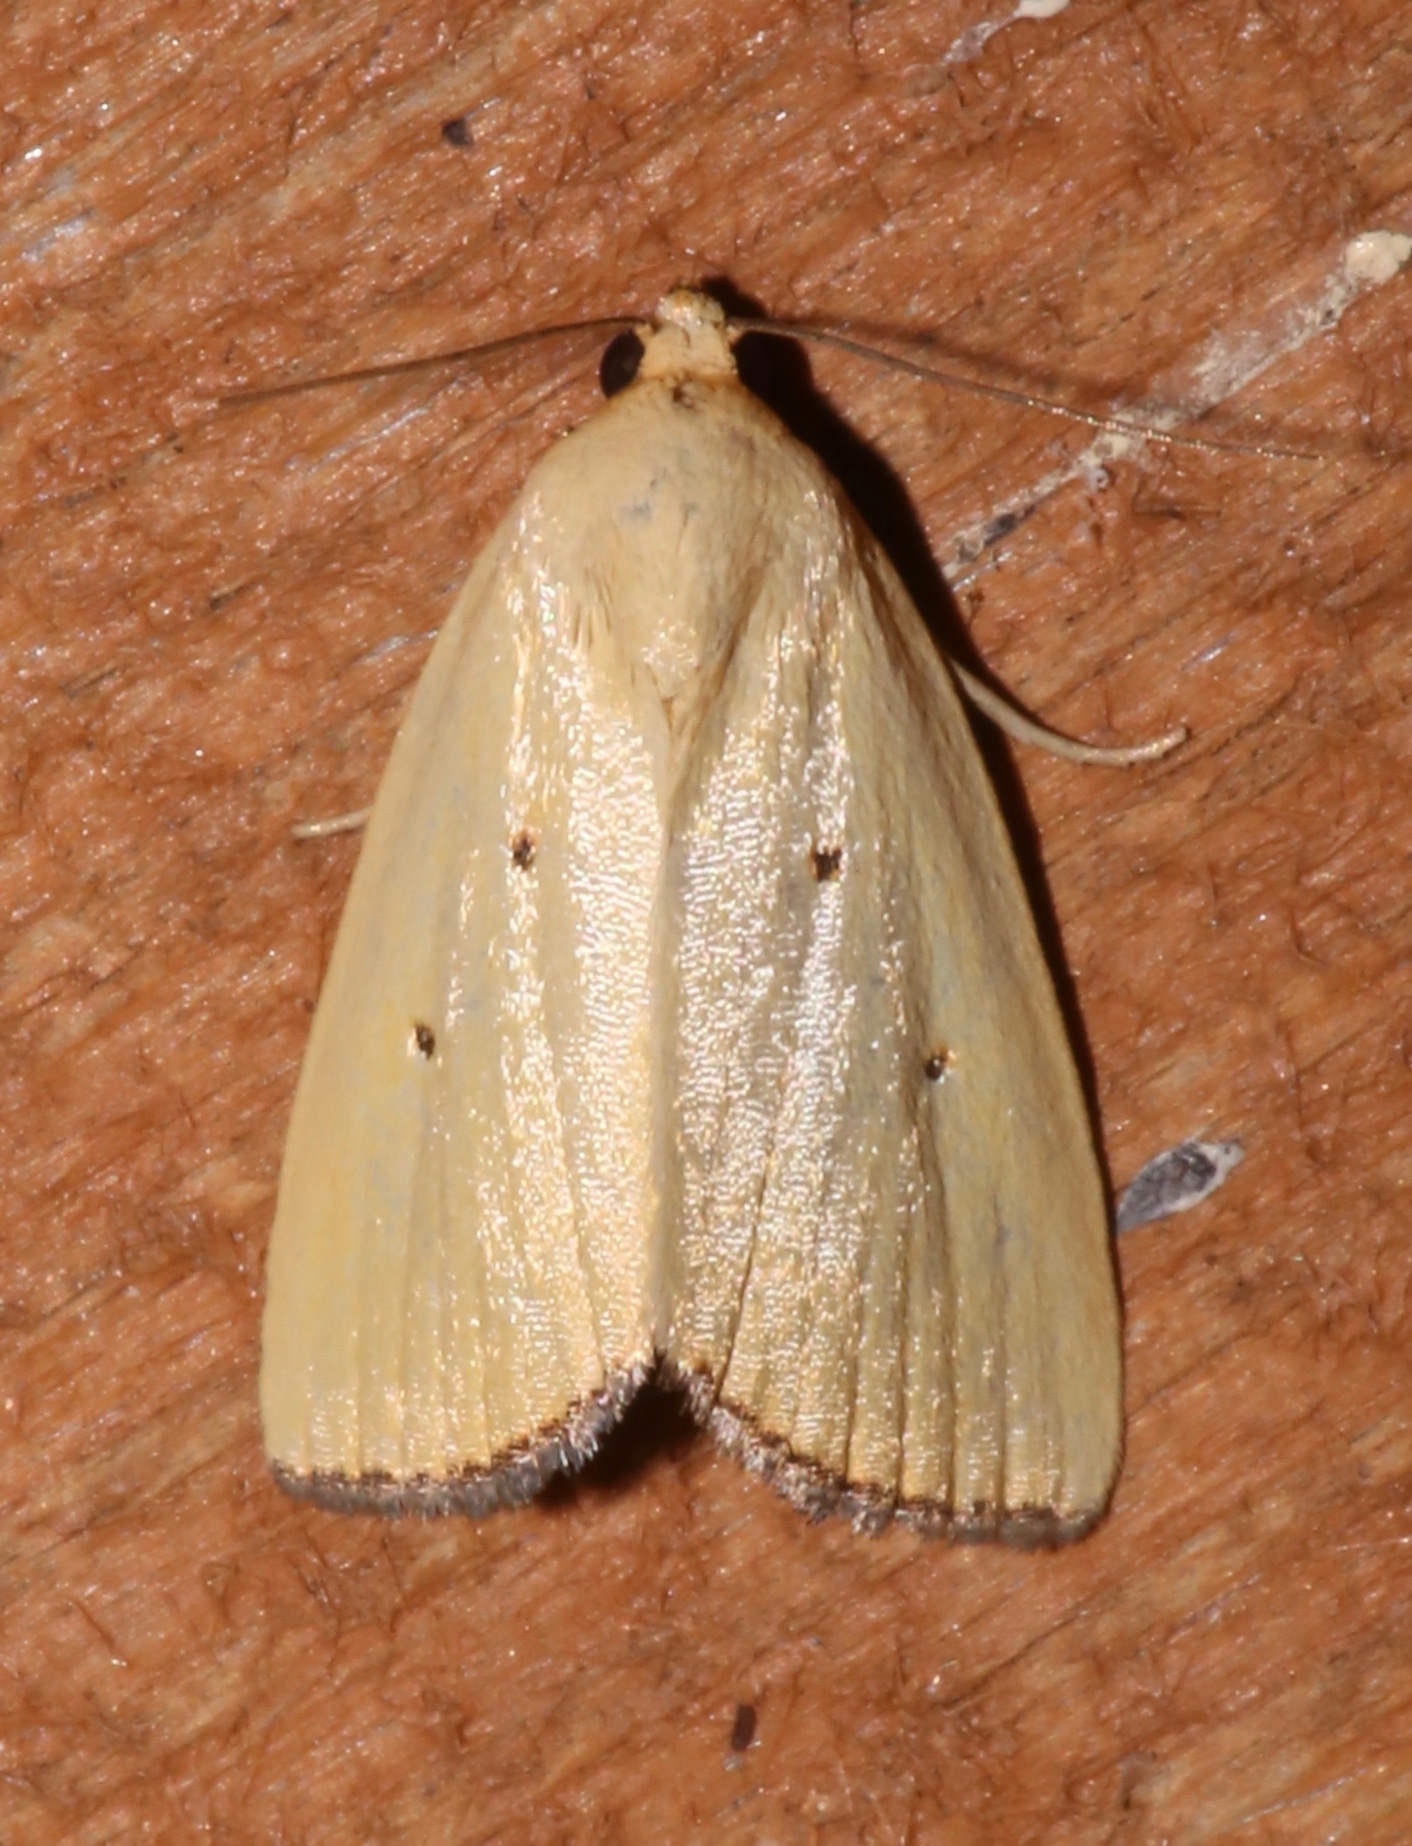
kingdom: Animalia
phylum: Arthropoda
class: Insecta
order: Lepidoptera
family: Noctuidae
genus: Marimatha
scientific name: Marimatha nigrofimbria
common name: Black-bordered lemon moth
